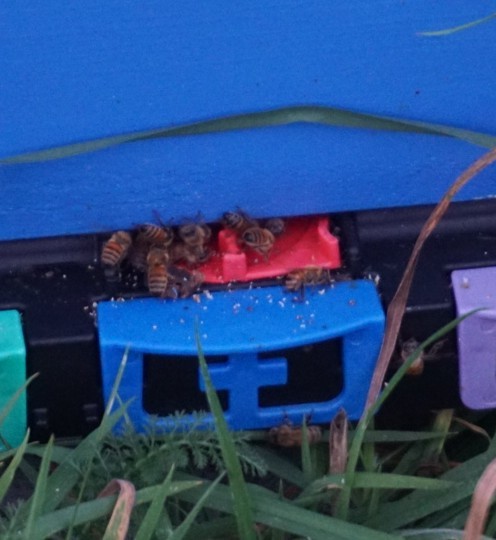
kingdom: Animalia
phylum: Arthropoda
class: Insecta
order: Hymenoptera
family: Apidae
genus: Apis
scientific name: Apis mellifera
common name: Honey bee
